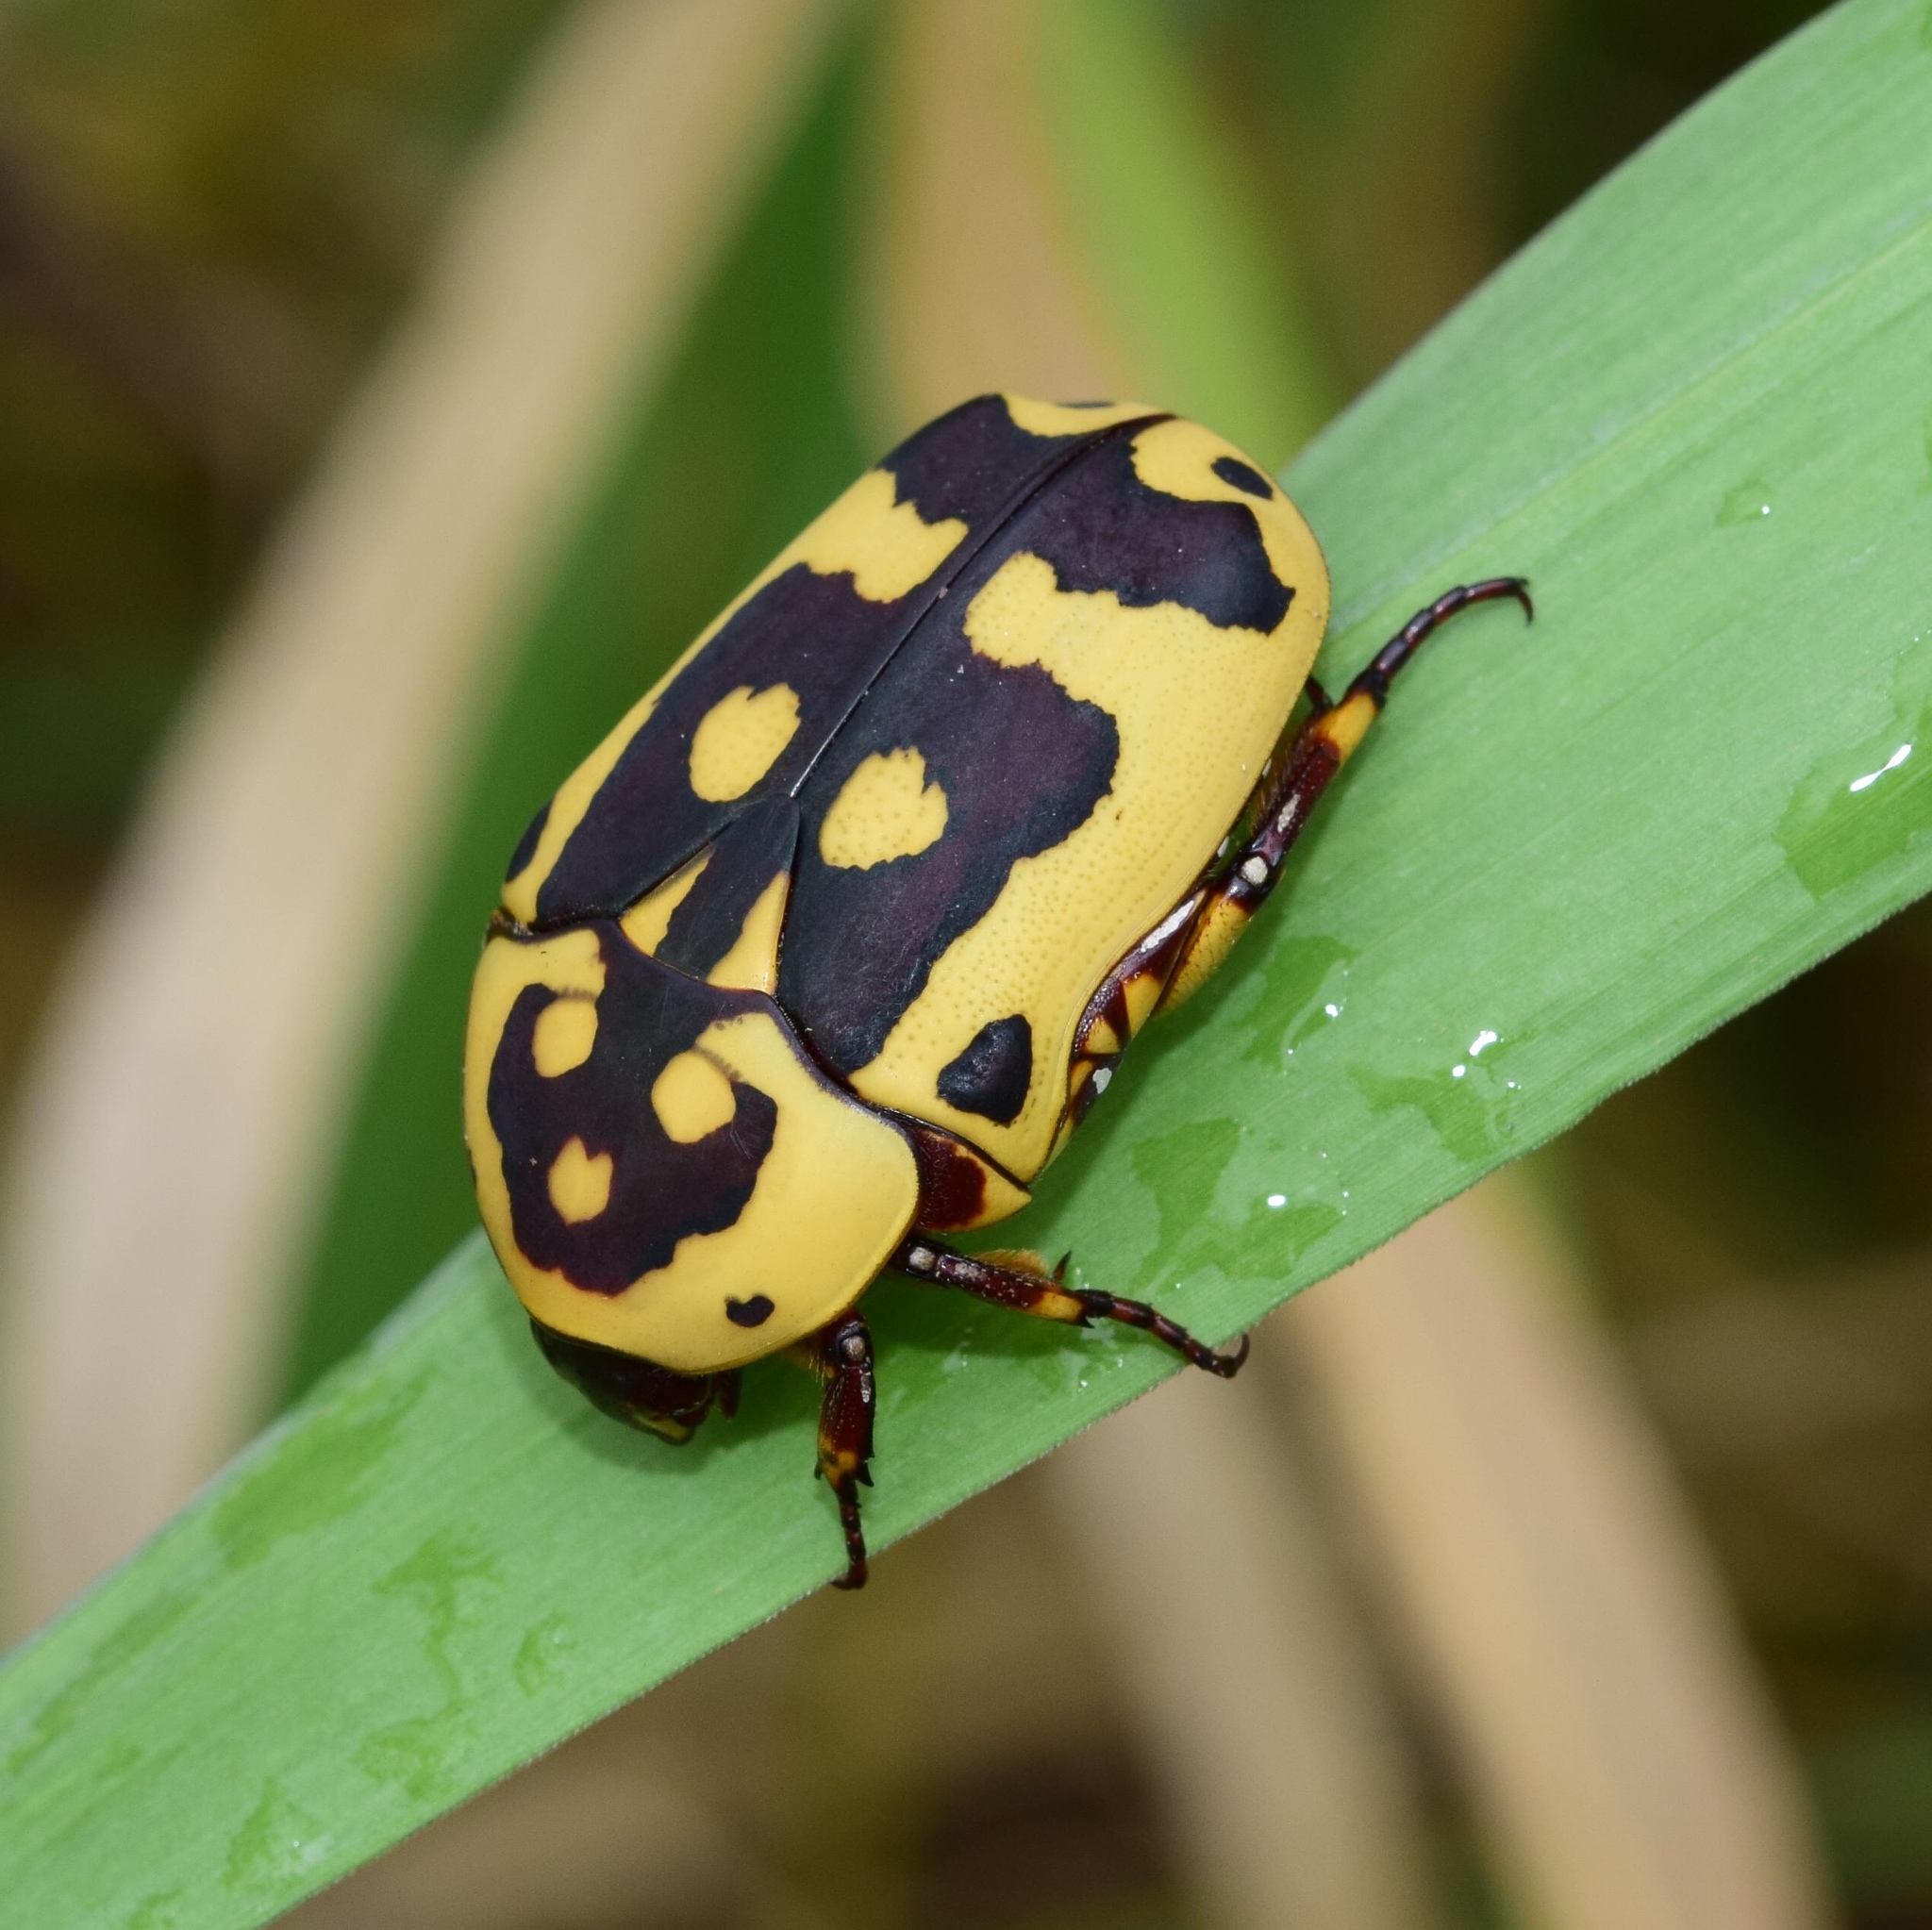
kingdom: Animalia
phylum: Arthropoda
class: Insecta
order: Coleoptera
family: Scarabaeidae
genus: Pachnoda
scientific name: Pachnoda sinuata
